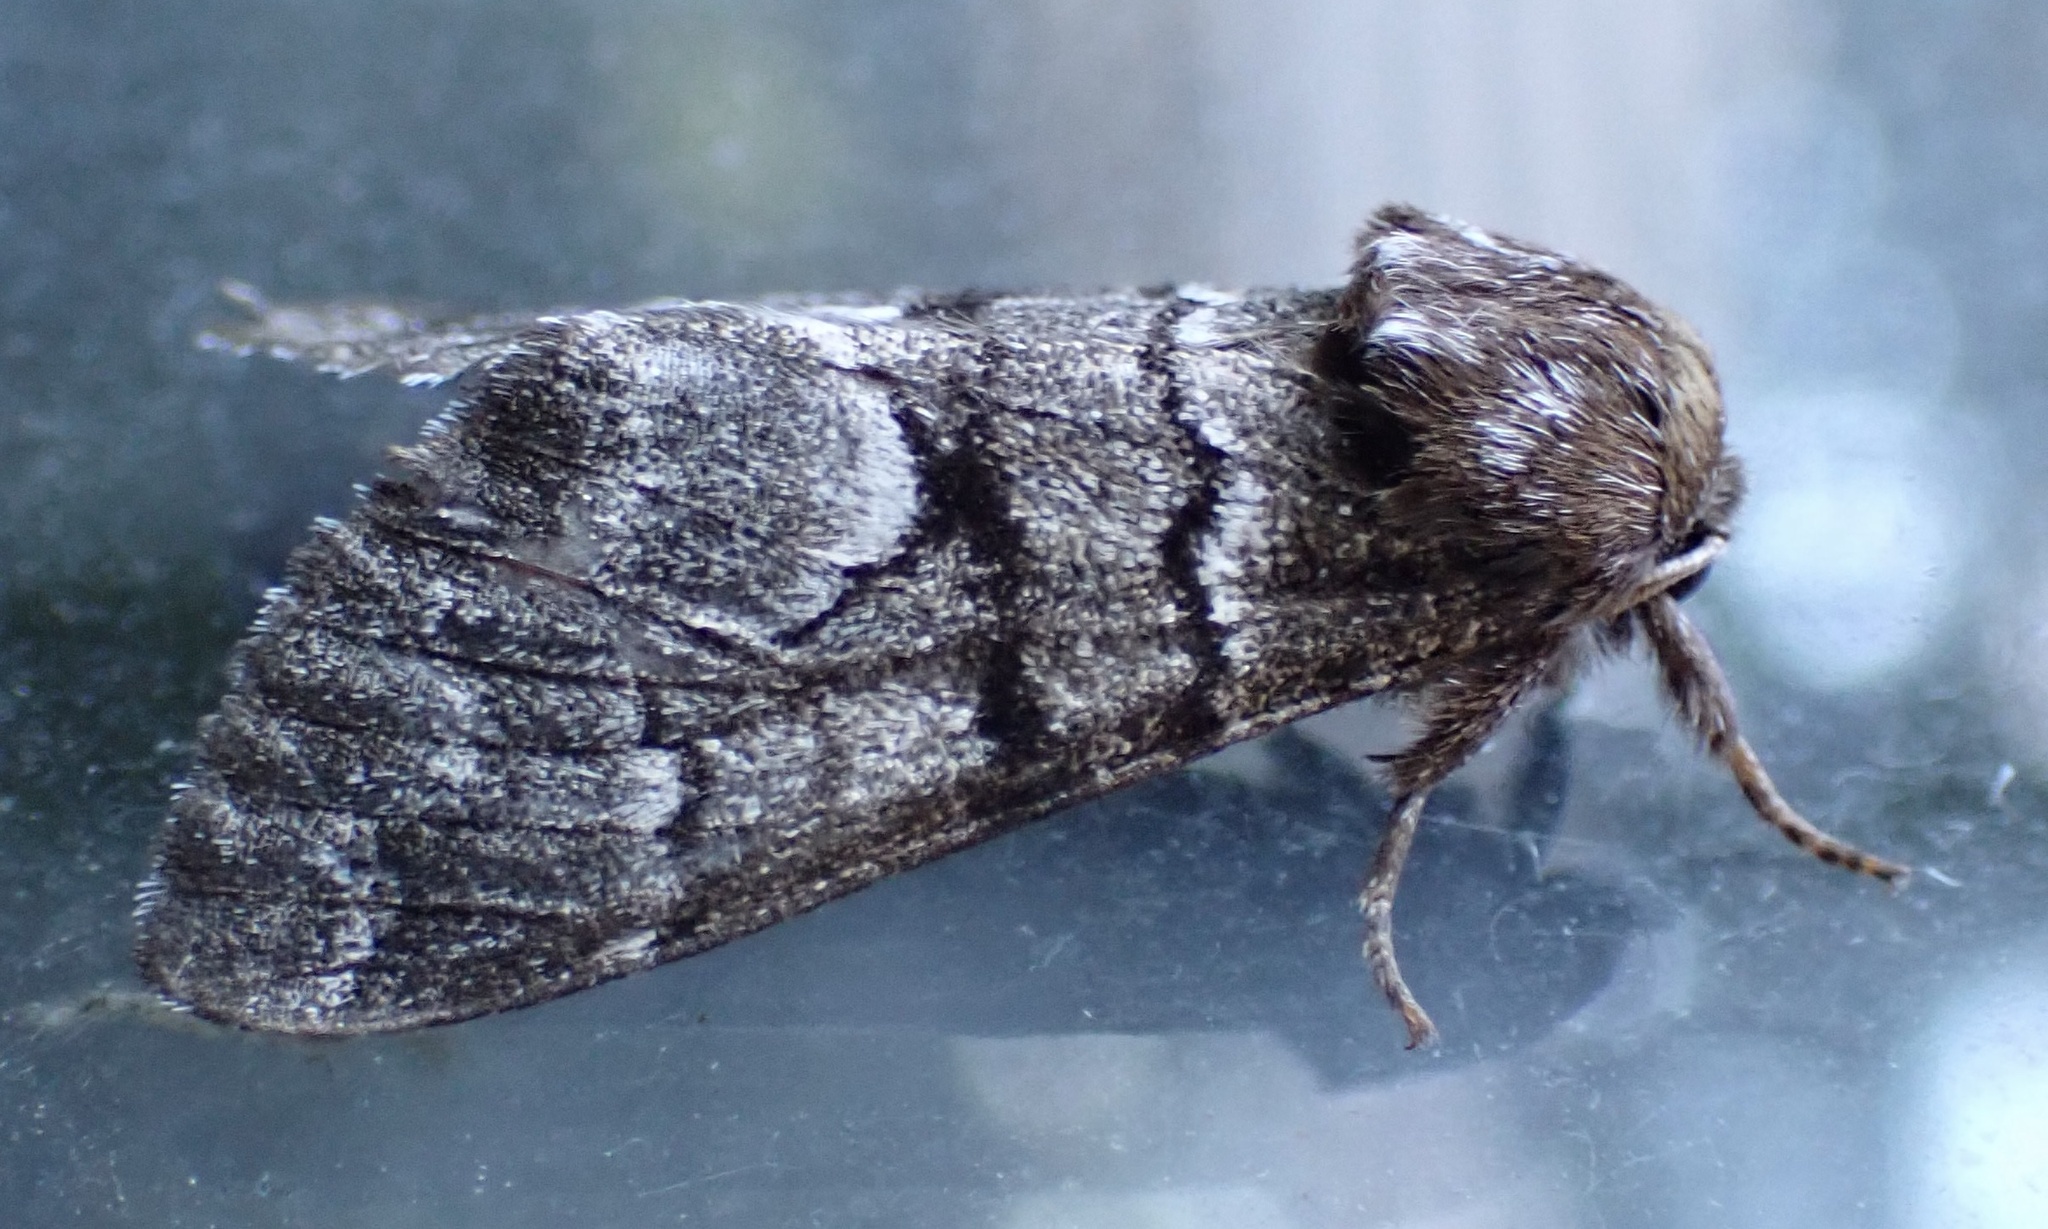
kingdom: Animalia
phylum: Arthropoda
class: Insecta
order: Lepidoptera
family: Noctuidae
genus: Panthea
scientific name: Panthea furcilla
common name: Eastern panthea moth
